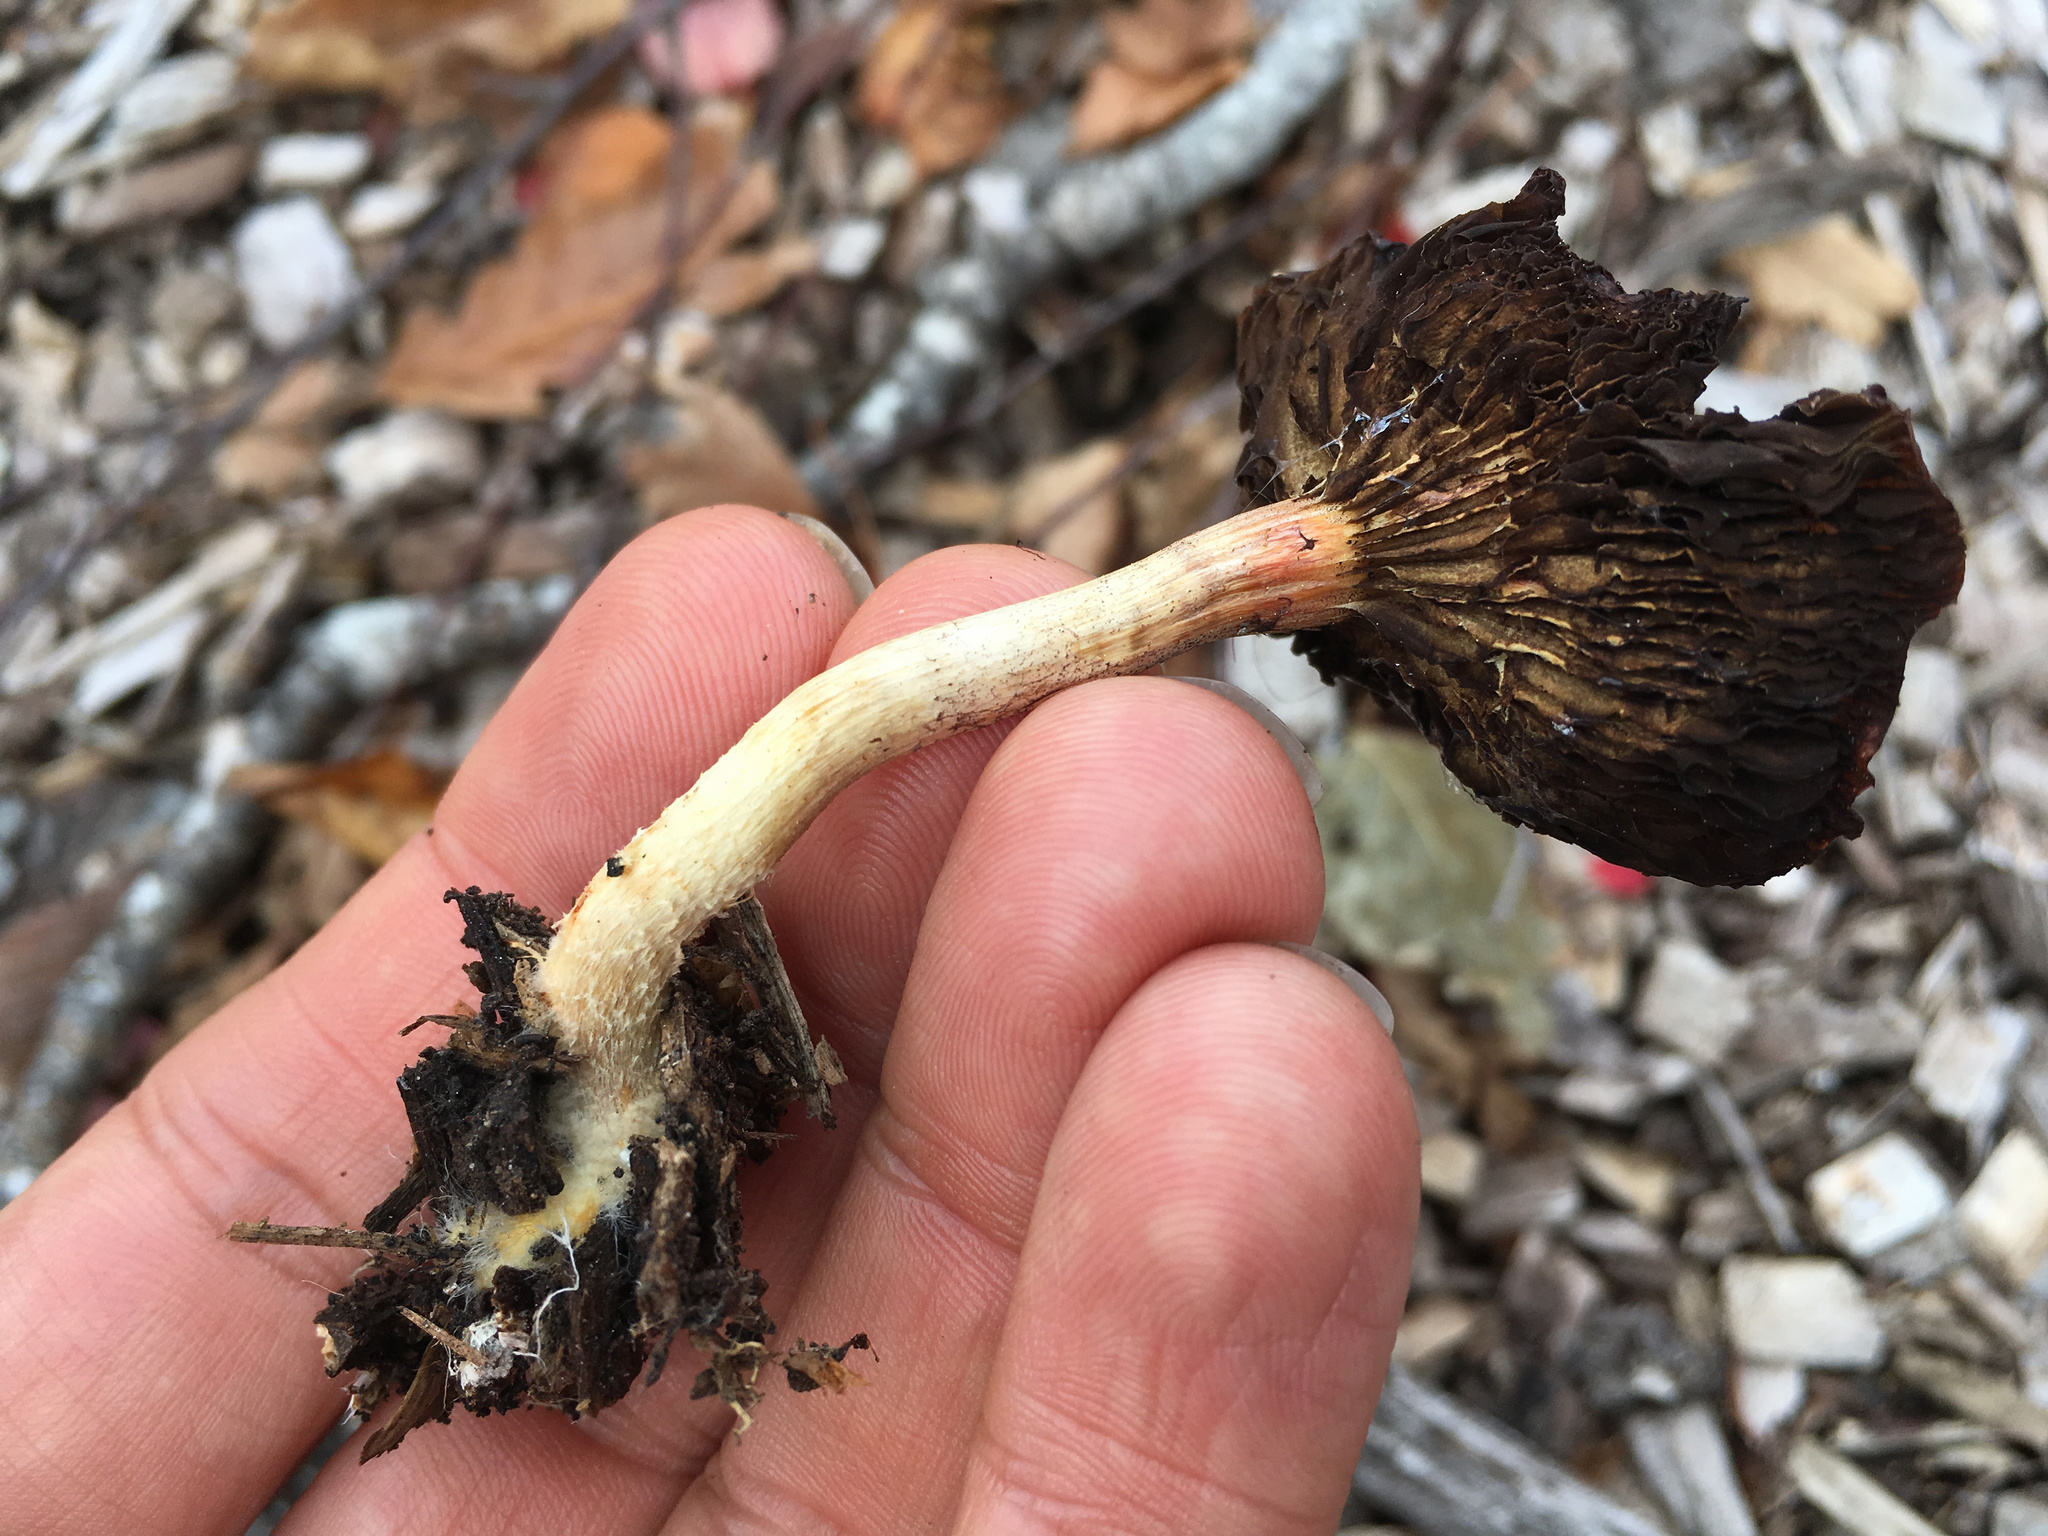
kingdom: Fungi
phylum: Basidiomycota
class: Agaricomycetes
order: Agaricales
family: Strophariaceae
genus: Leratiomyces
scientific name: Leratiomyces ceres
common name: Redlead roundhead
